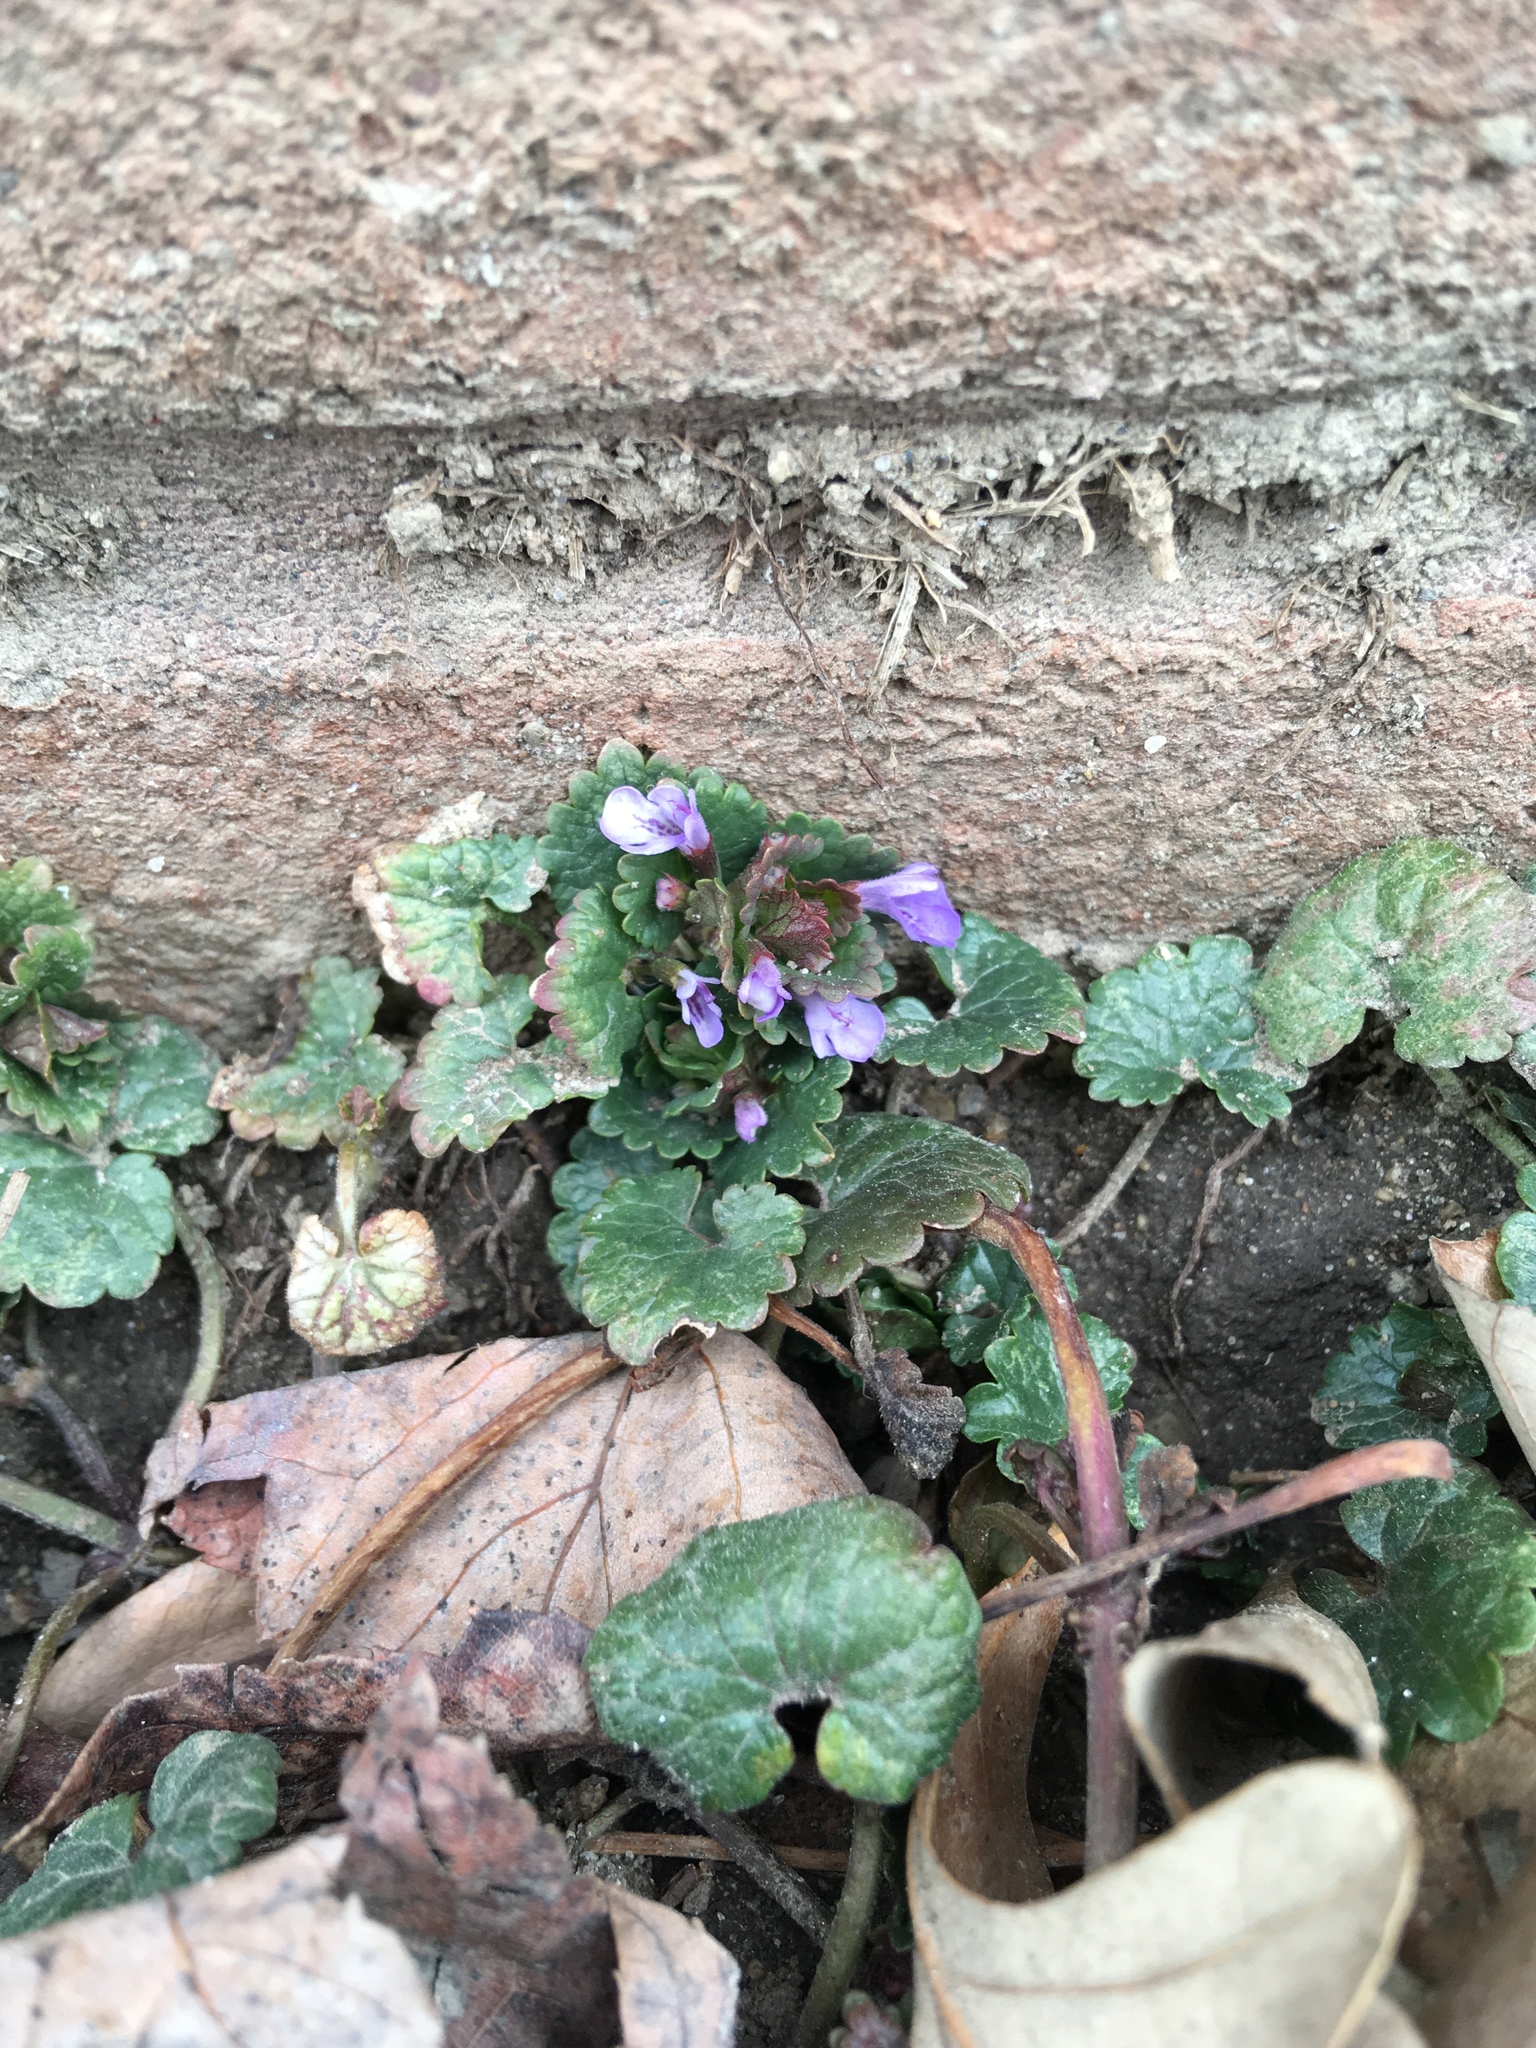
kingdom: Plantae
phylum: Tracheophyta
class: Magnoliopsida
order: Lamiales
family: Lamiaceae
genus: Glechoma
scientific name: Glechoma hederacea
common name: Ground ivy
